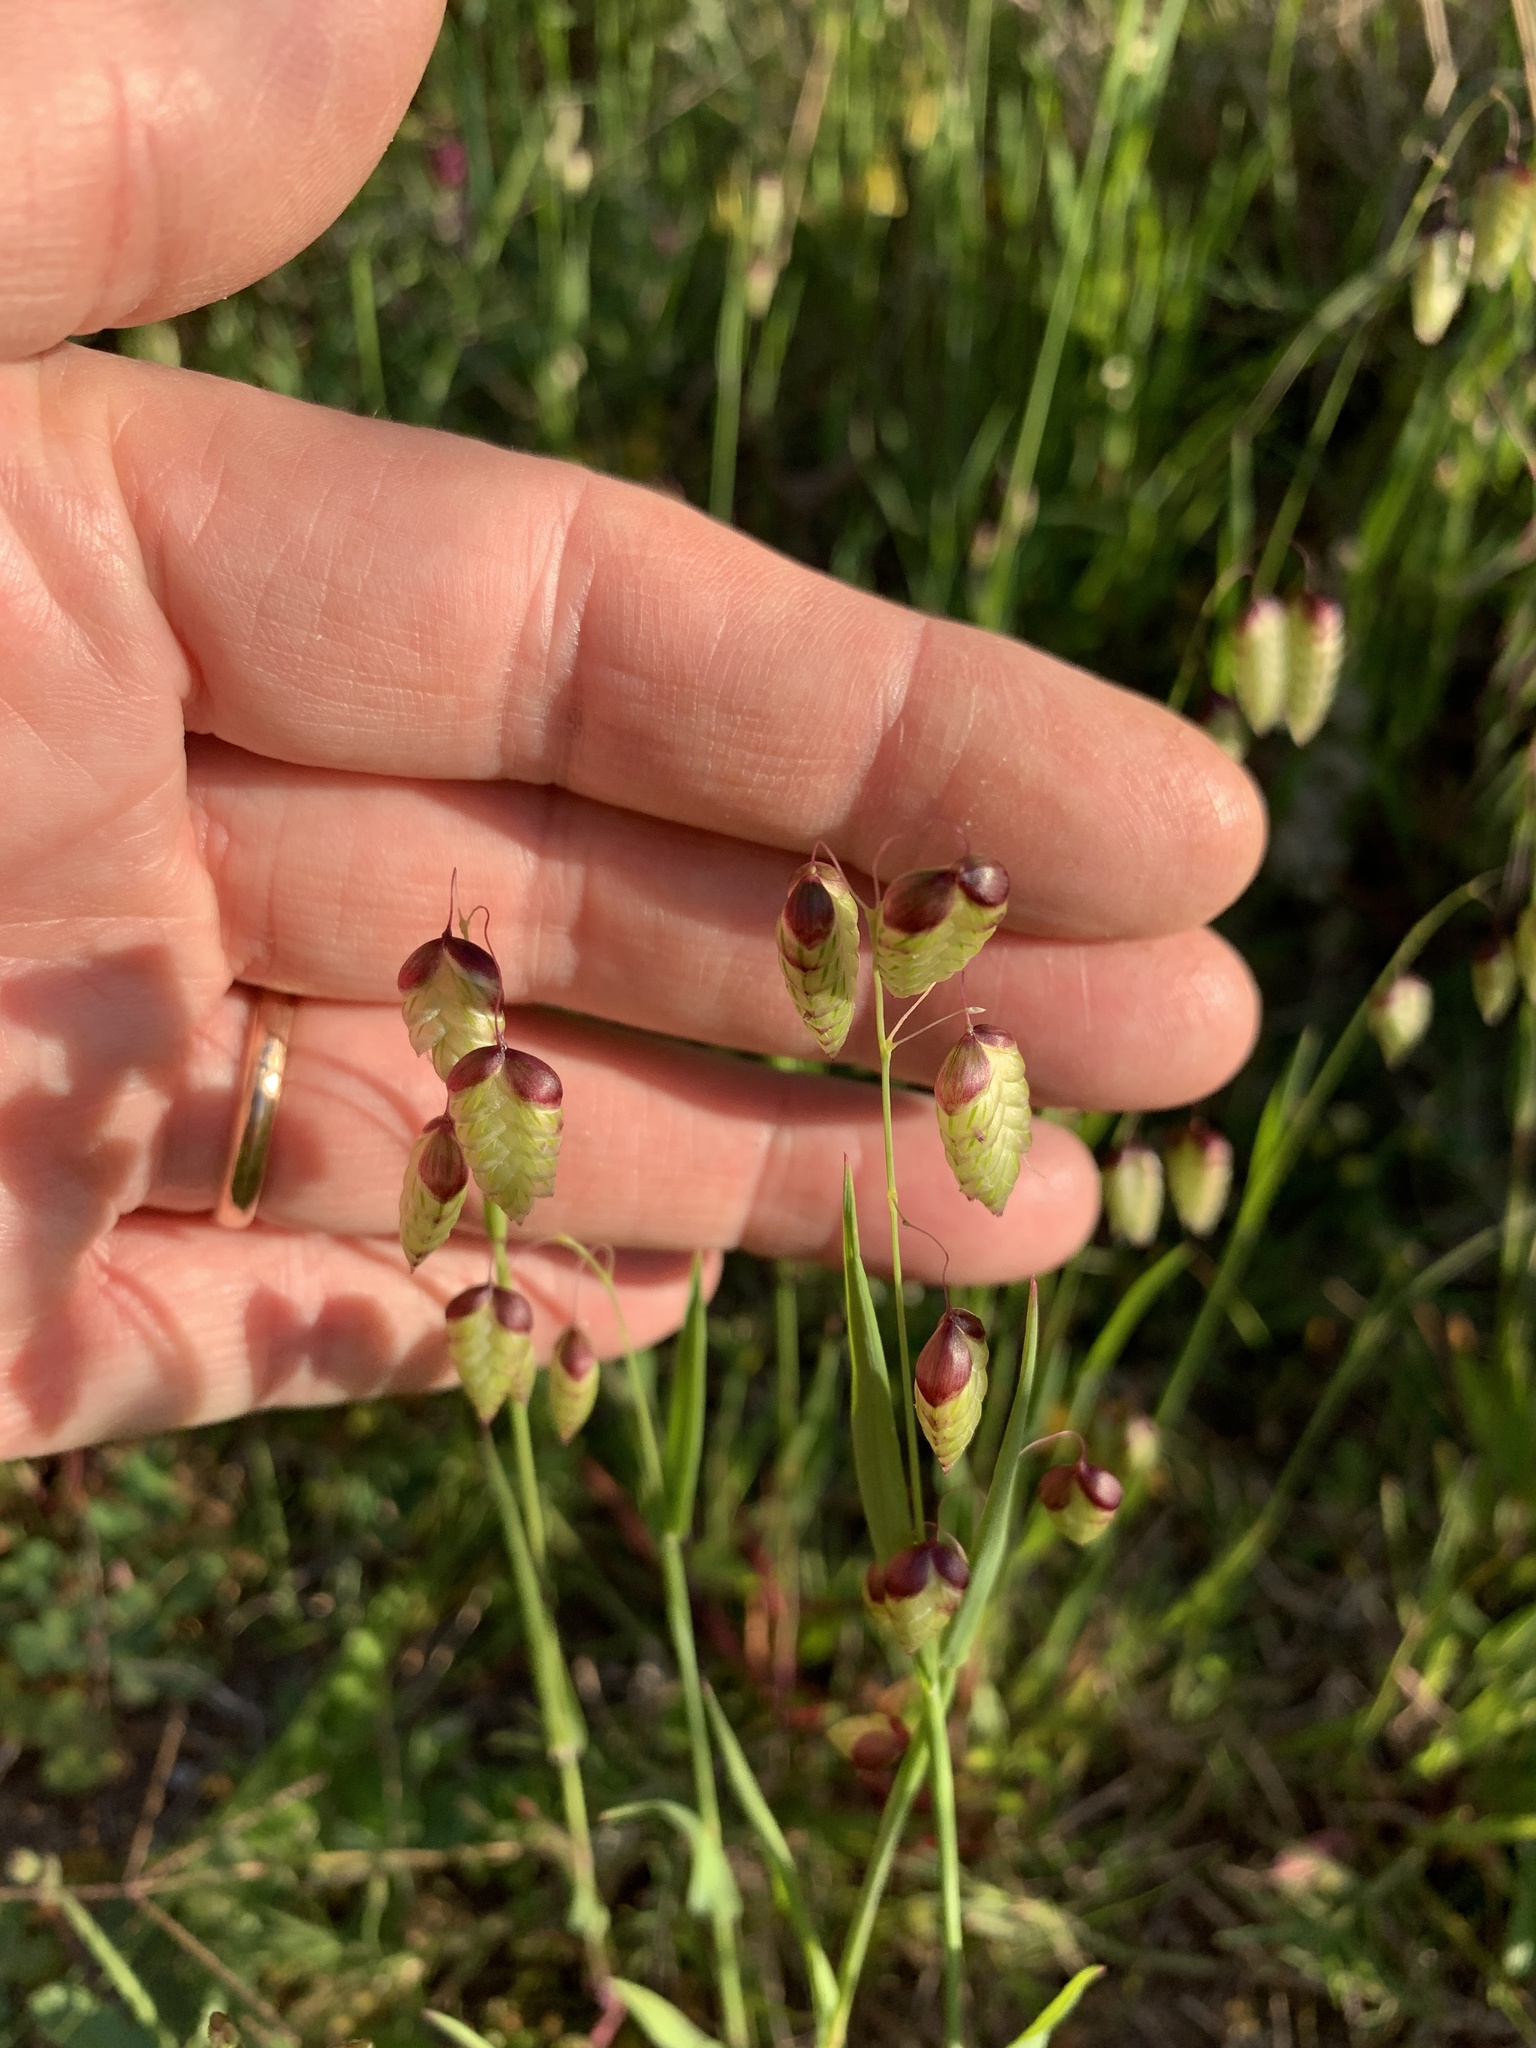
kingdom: Plantae
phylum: Tracheophyta
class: Liliopsida
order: Poales
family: Poaceae
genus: Briza
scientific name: Briza maxima
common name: Big quakinggrass
